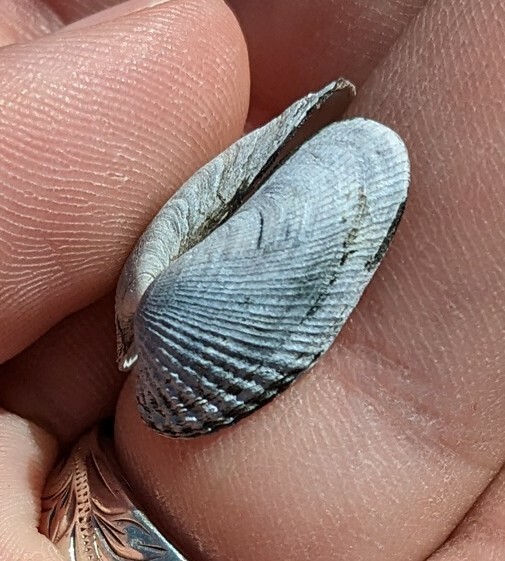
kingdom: Animalia
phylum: Mollusca
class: Bivalvia
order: Venerida
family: Veneridae
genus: Petricolaria
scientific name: Petricolaria pholadiformis
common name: American piddock
